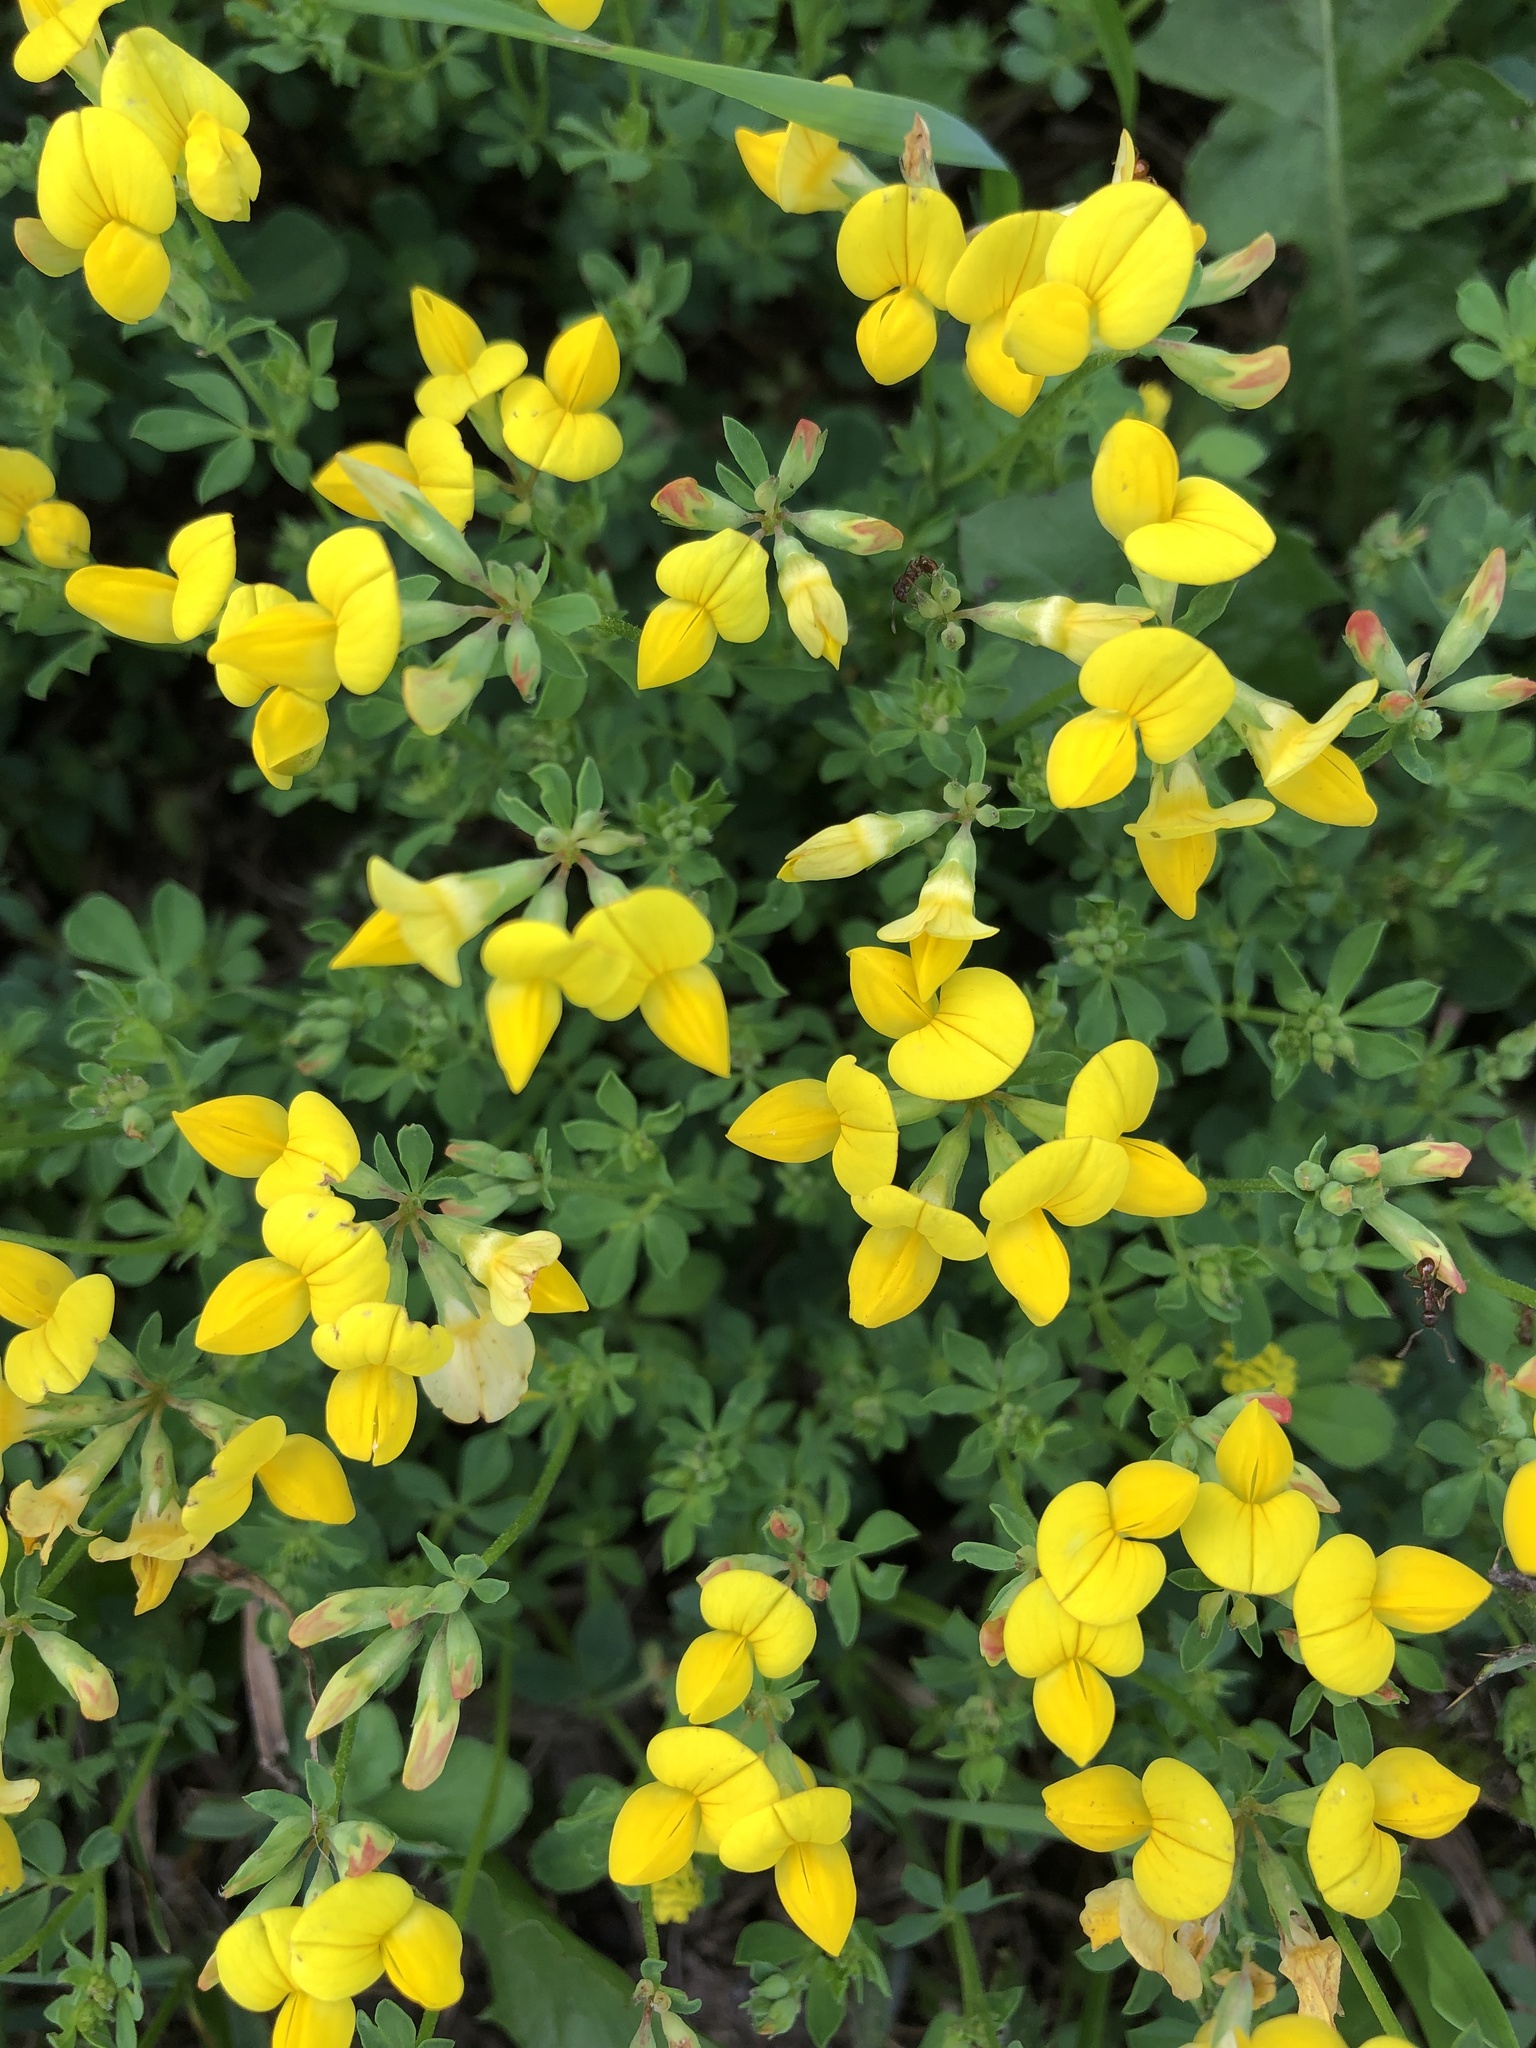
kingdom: Plantae
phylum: Tracheophyta
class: Magnoliopsida
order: Fabales
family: Fabaceae
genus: Lotus
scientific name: Lotus corniculatus
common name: Common bird's-foot-trefoil
